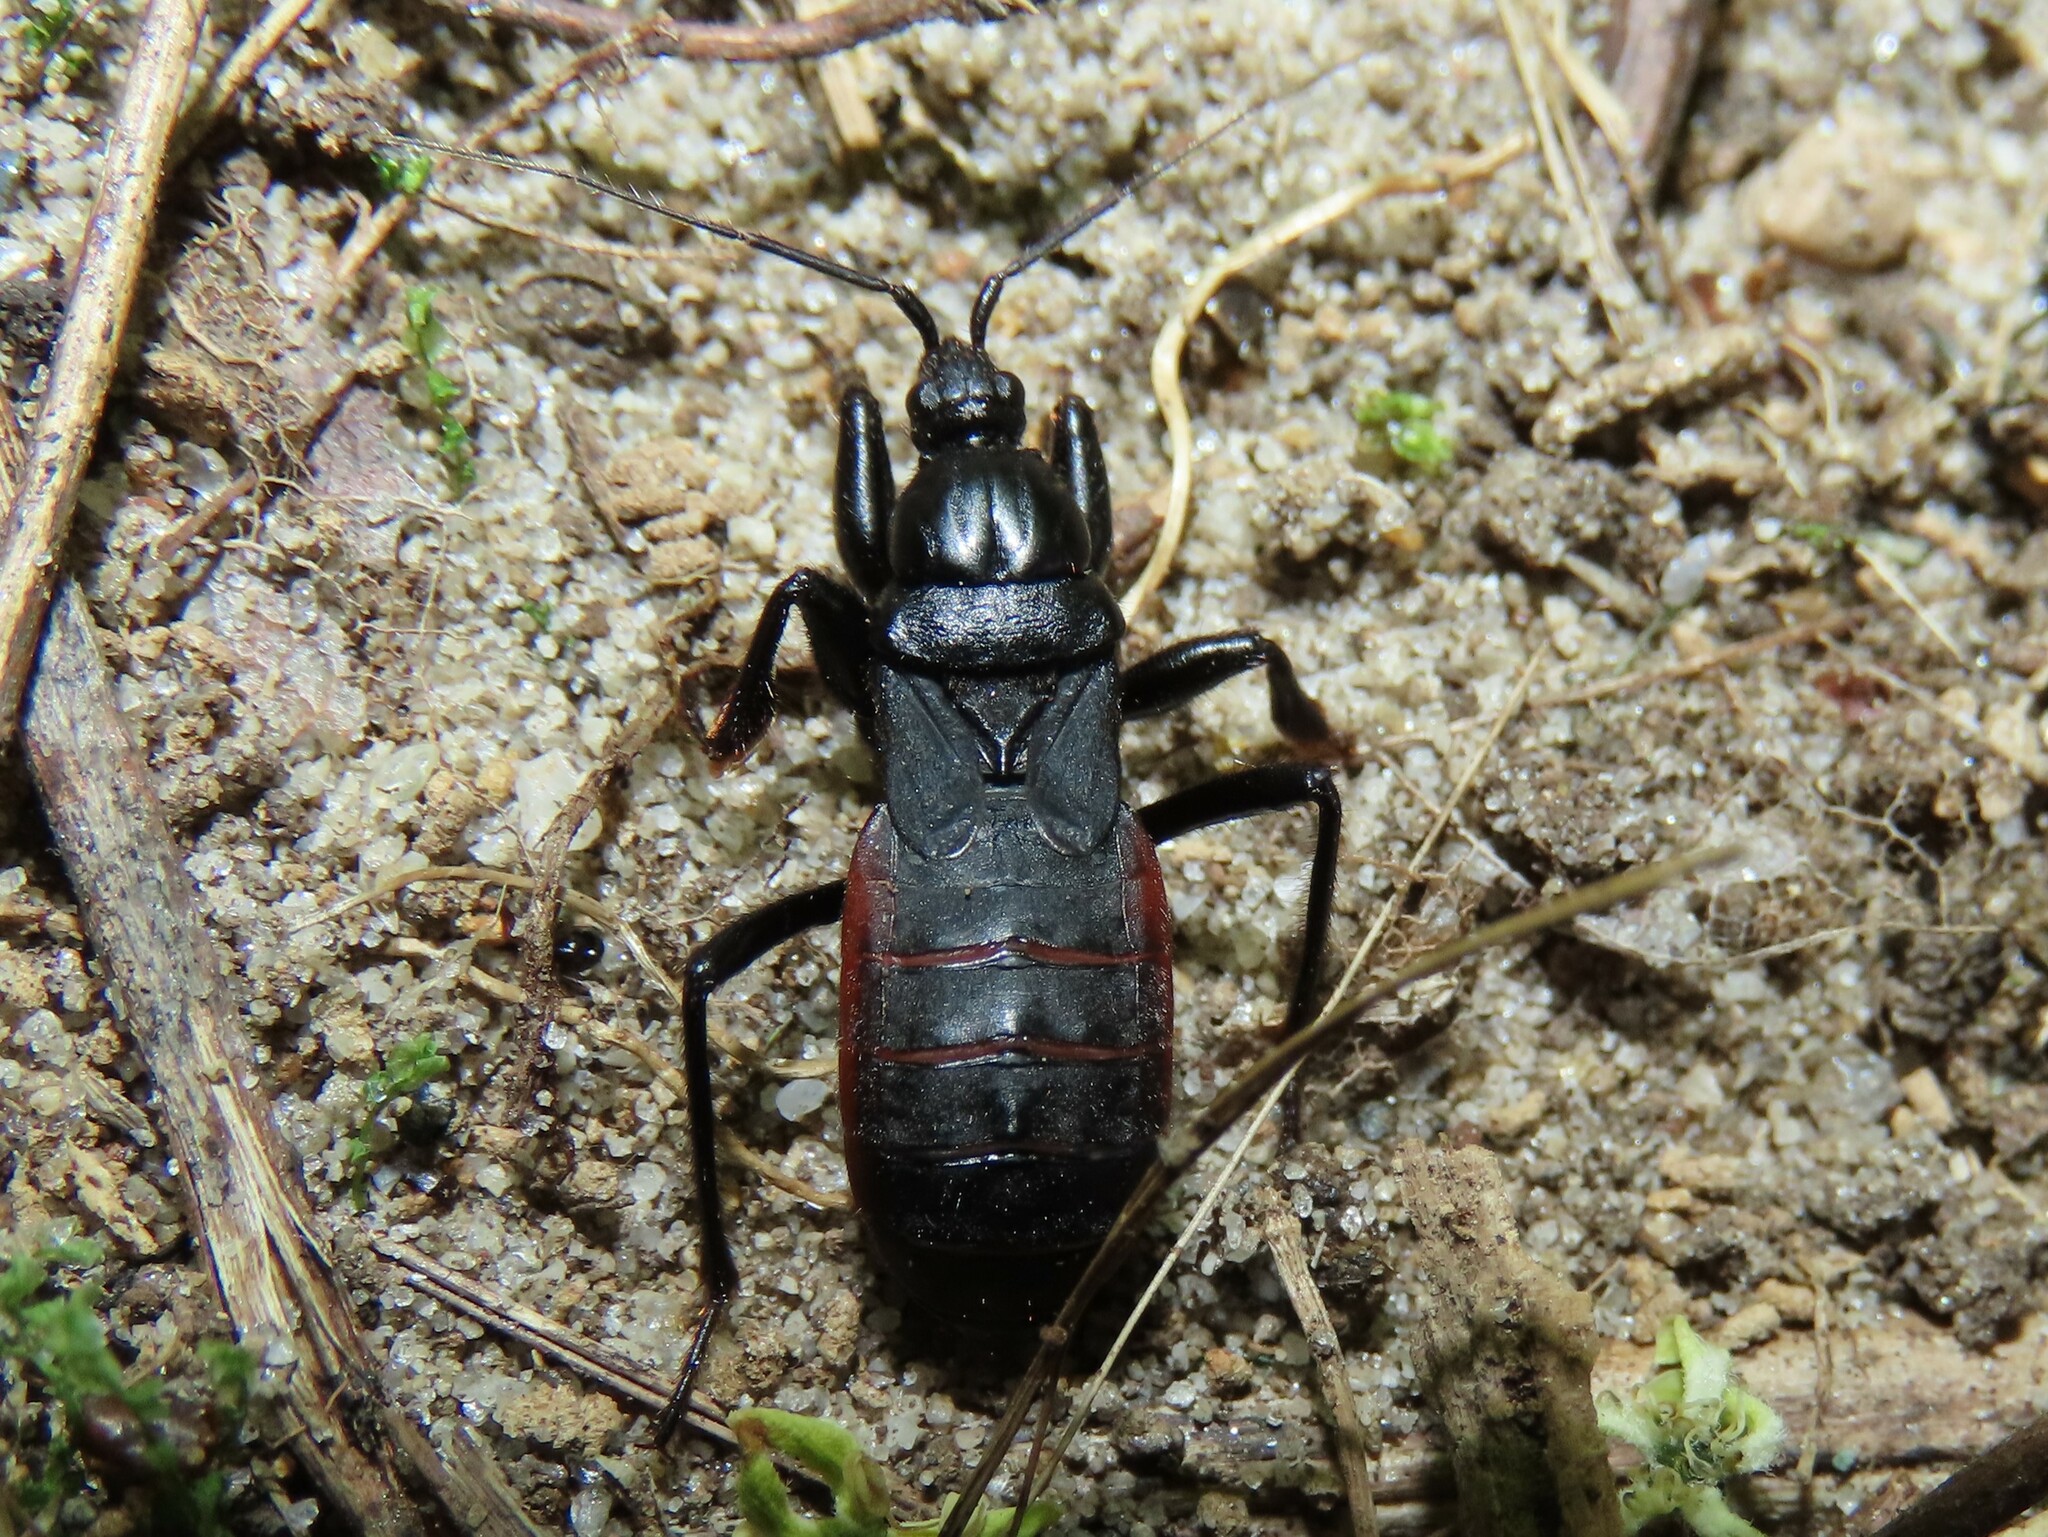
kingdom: Animalia
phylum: Arthropoda
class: Insecta
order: Hemiptera
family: Reduviidae
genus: Melanolestes
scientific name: Melanolestes picipes
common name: Assassin bug
